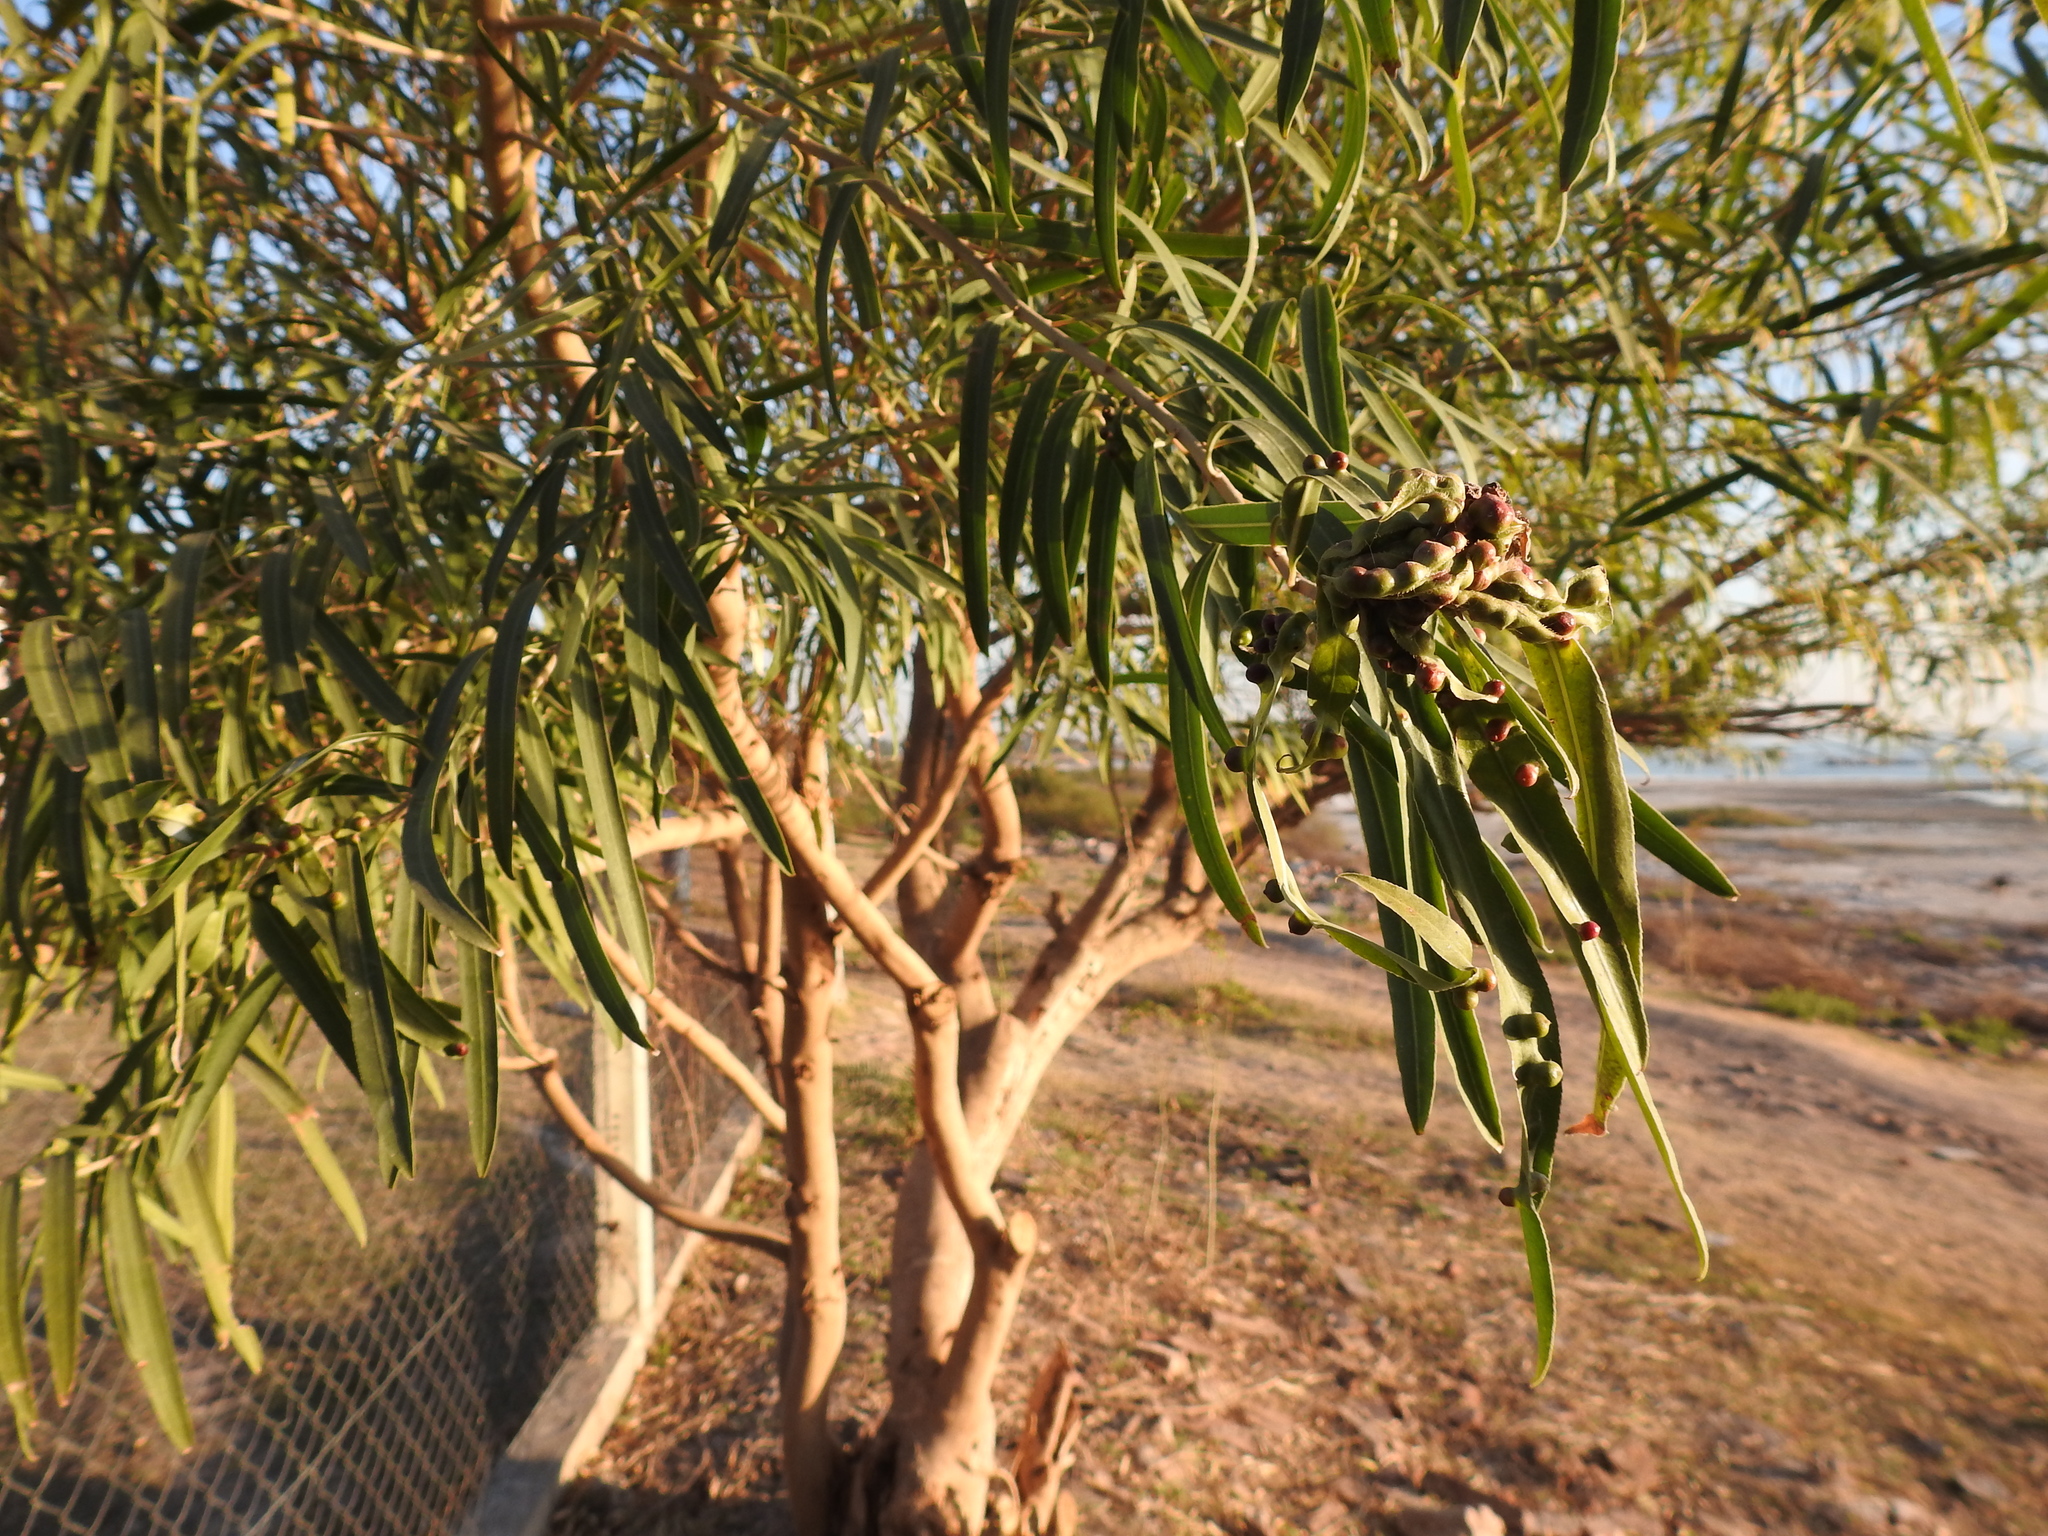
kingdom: Plantae
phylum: Tracheophyta
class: Magnoliopsida
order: Malpighiales
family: Euphorbiaceae
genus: Sapium
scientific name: Sapium haematospermum
